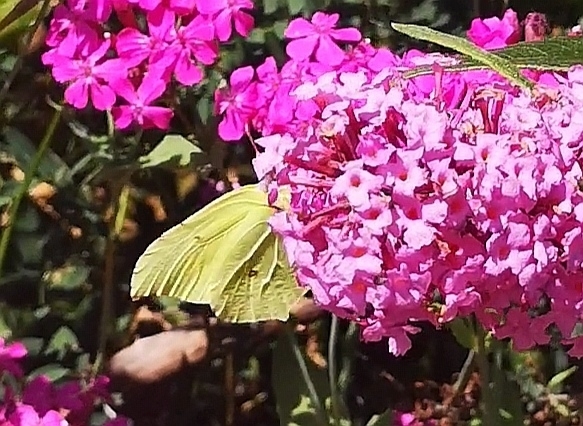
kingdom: Animalia
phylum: Arthropoda
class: Insecta
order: Lepidoptera
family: Pieridae
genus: Gonepteryx
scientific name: Gonepteryx rhamni
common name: Brimstone
